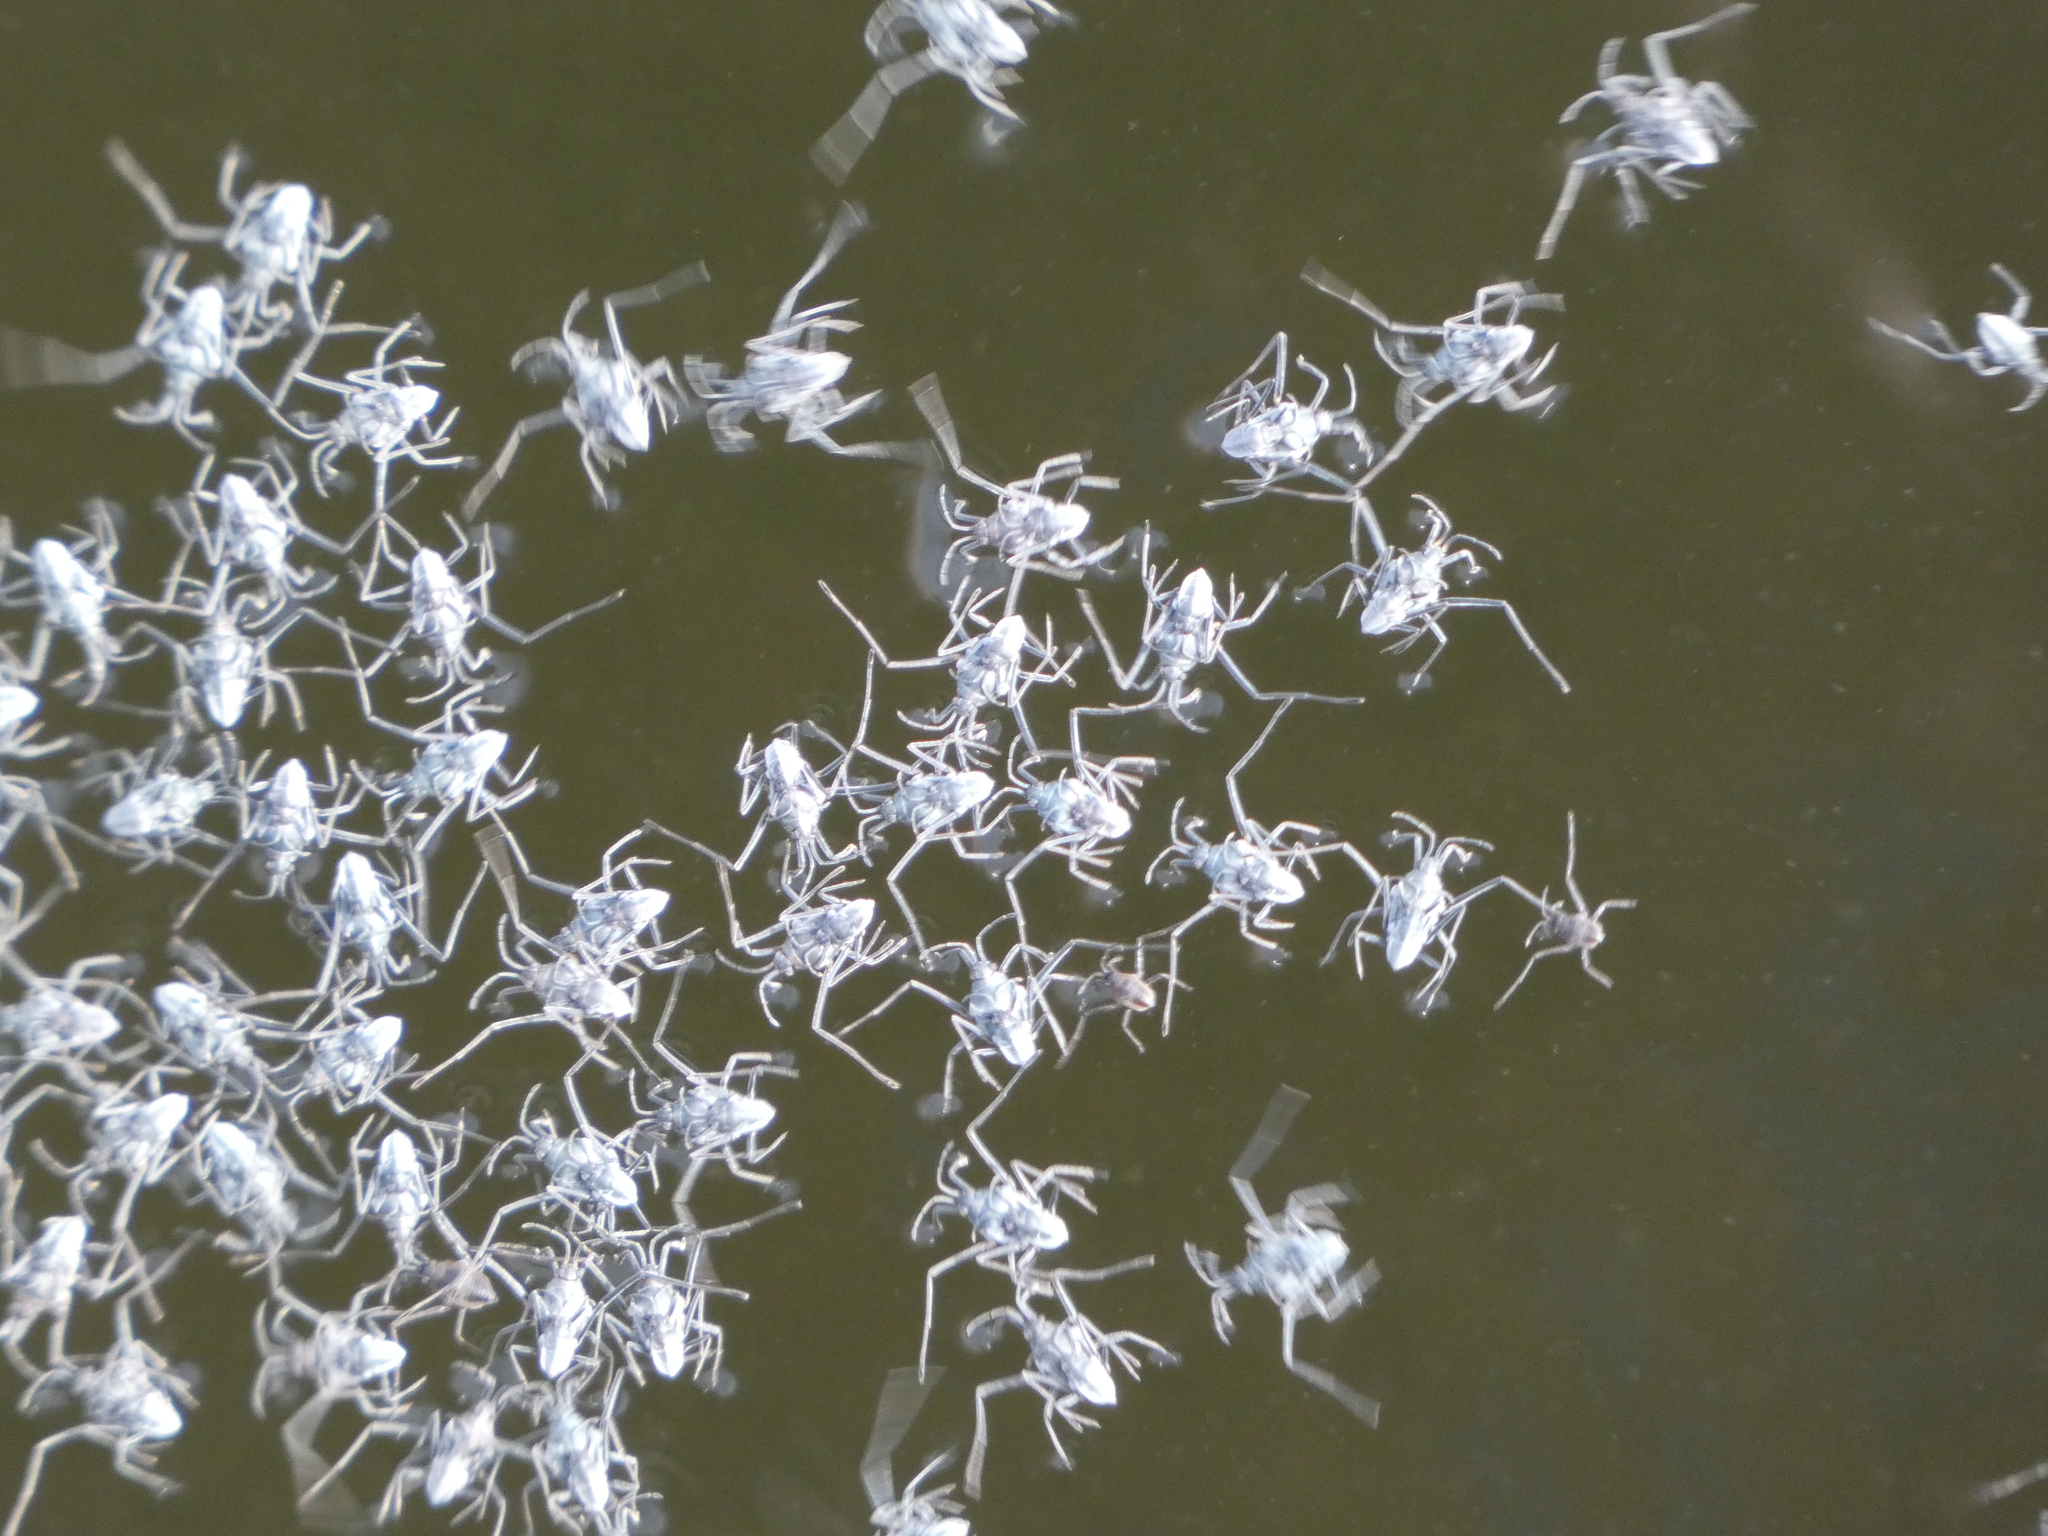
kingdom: Animalia
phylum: Arthropoda
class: Insecta
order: Hemiptera
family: Veliidae
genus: Rhagovelia
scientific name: Rhagovelia plumbea
